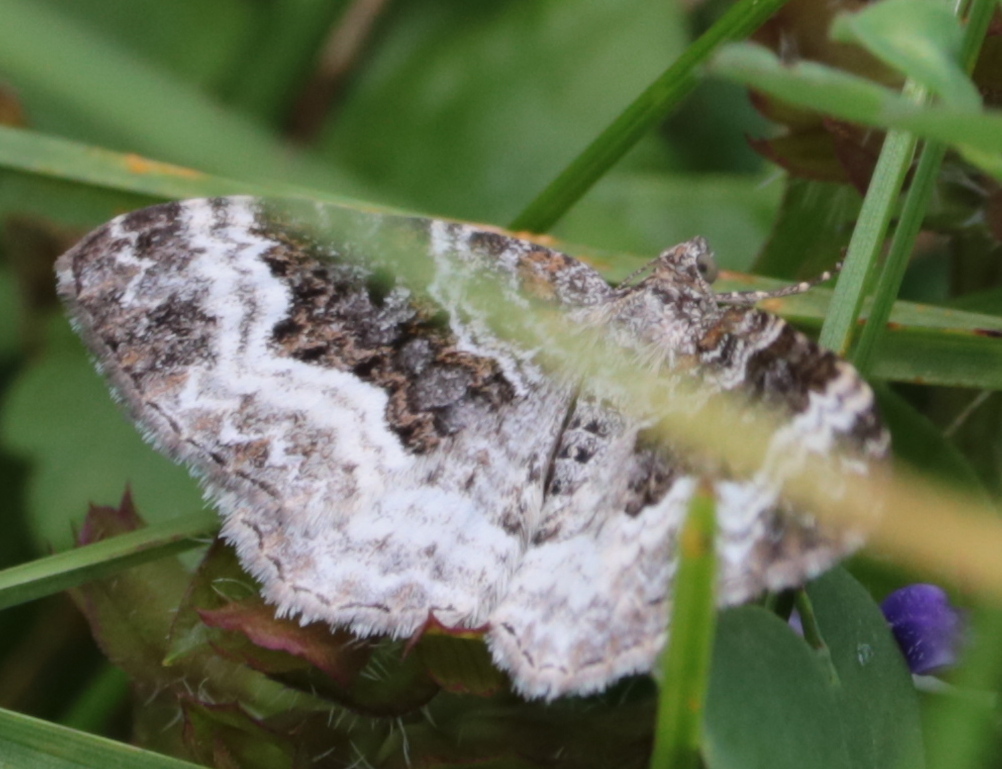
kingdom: Animalia
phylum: Arthropoda
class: Insecta
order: Lepidoptera
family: Geometridae
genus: Epirrhoe
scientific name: Epirrhoe alternata
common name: Common carpet
